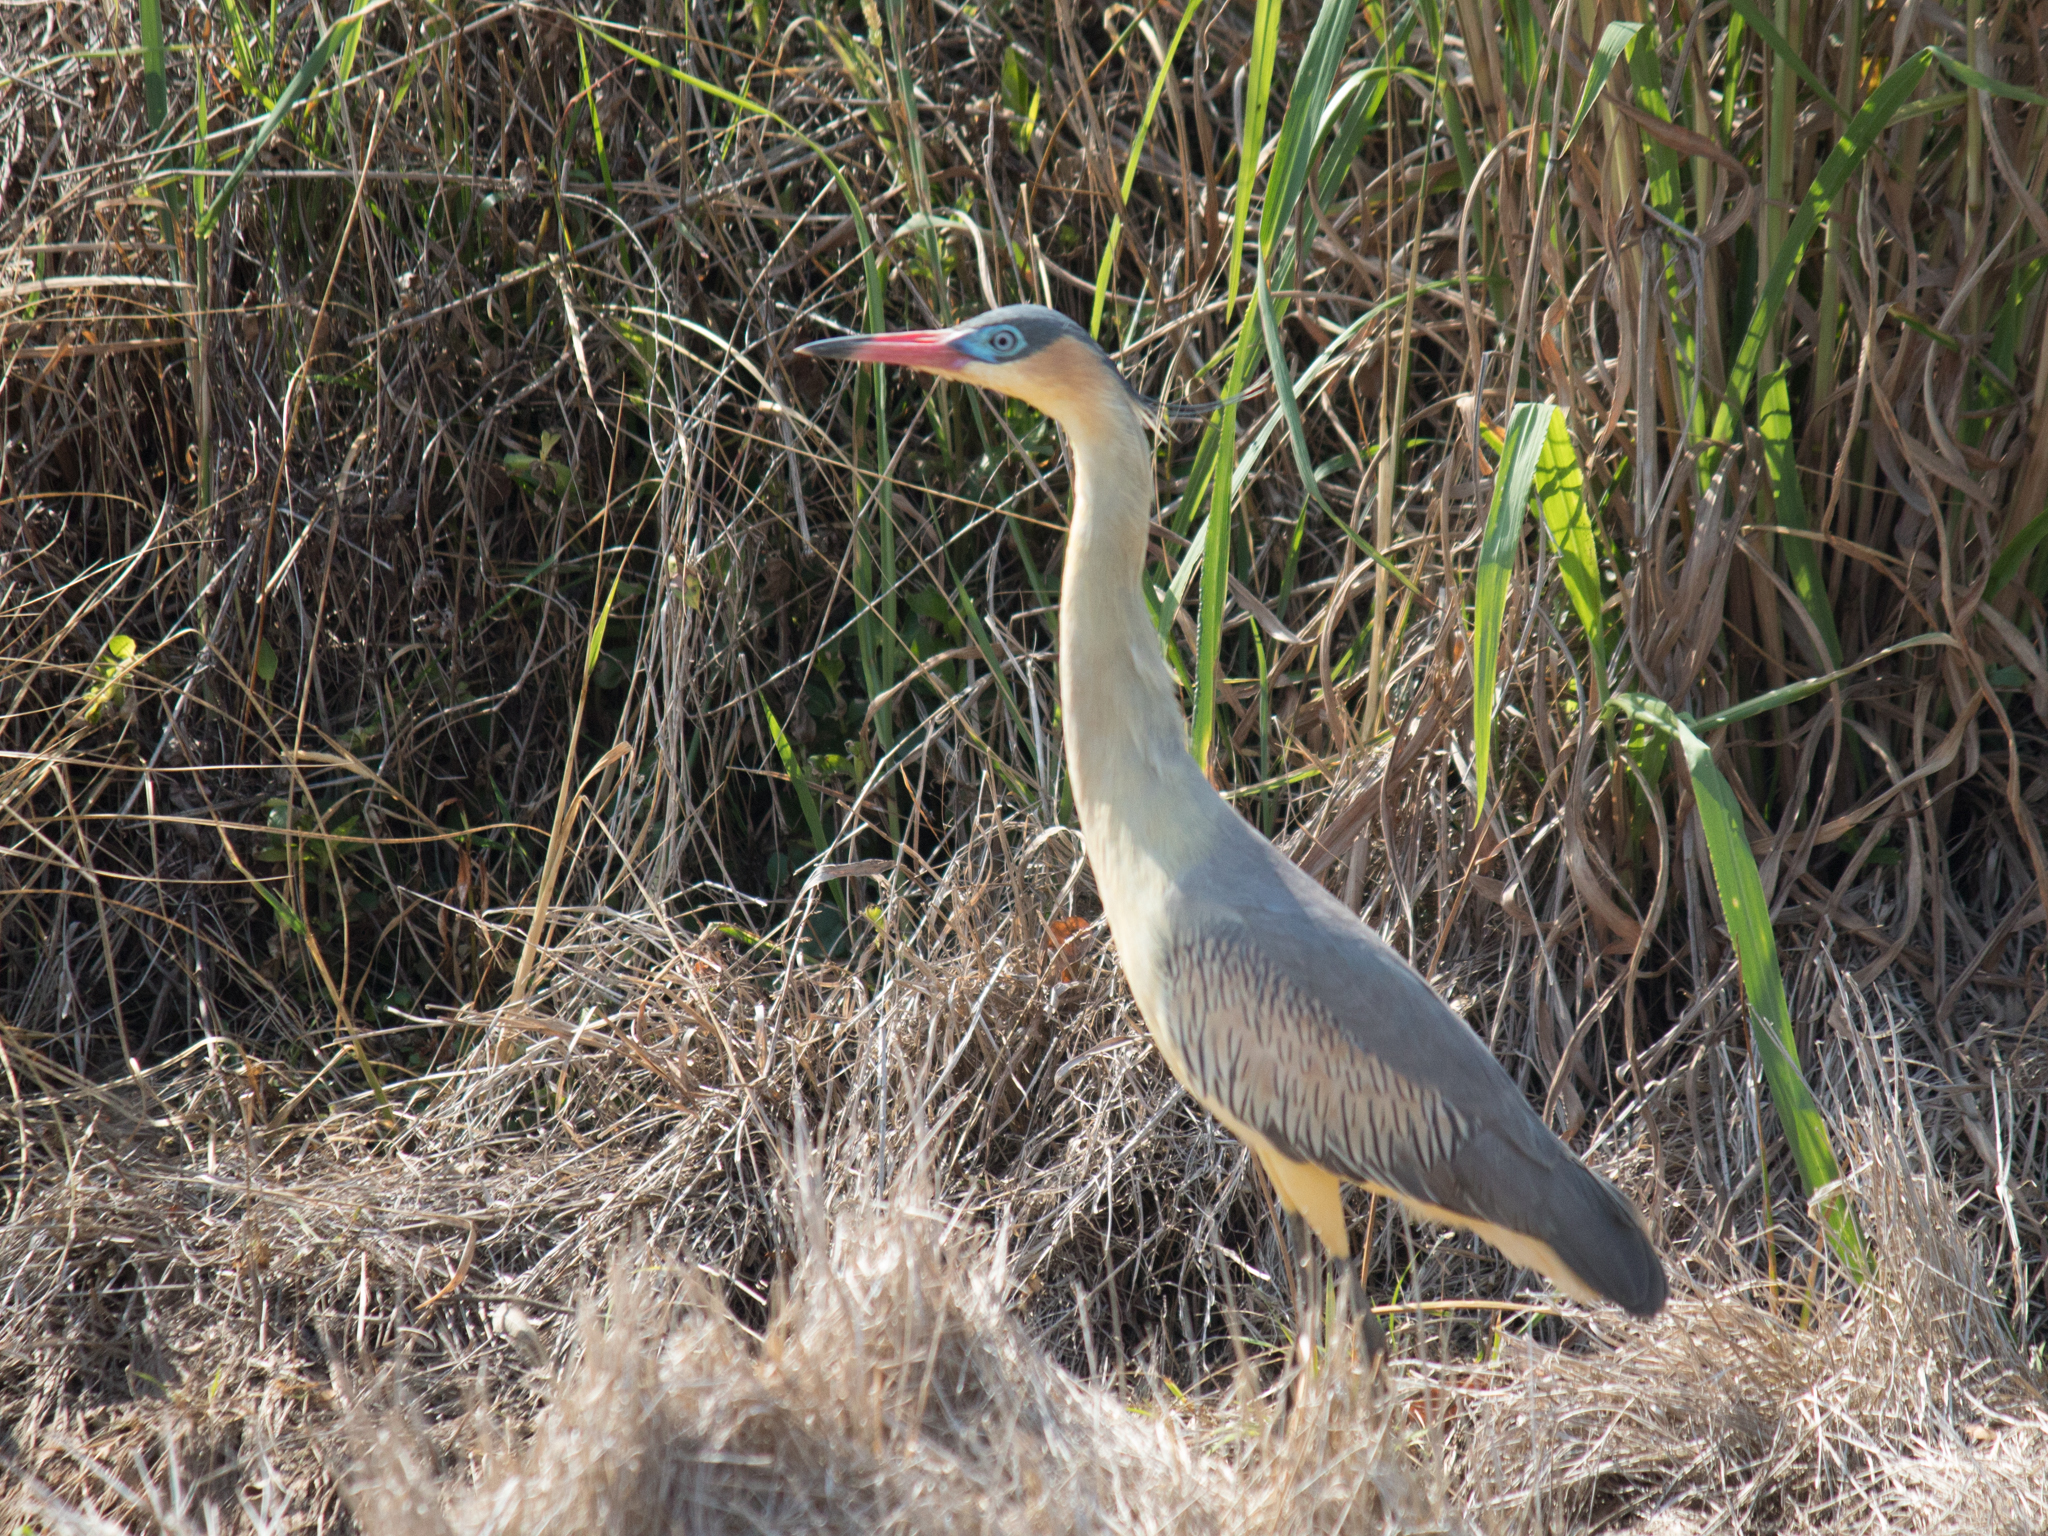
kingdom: Animalia
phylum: Chordata
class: Aves
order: Pelecaniformes
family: Ardeidae
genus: Syrigma
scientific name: Syrigma sibilatrix
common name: Whistling heron
